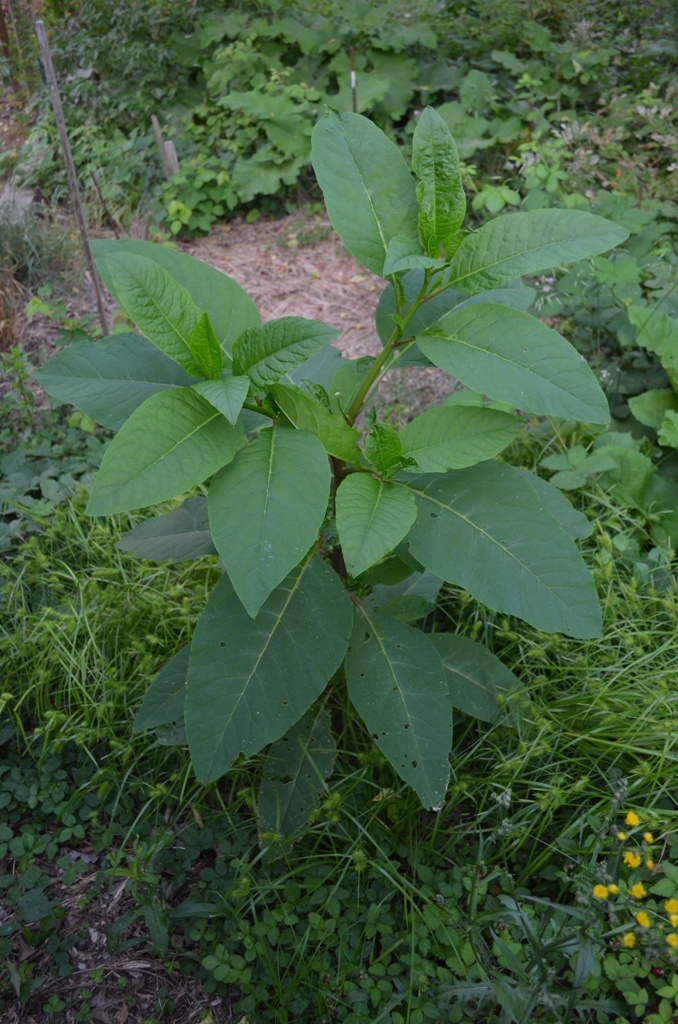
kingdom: Plantae
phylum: Tracheophyta
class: Magnoliopsida
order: Caryophyllales
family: Phytolaccaceae
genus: Phytolacca
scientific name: Phytolacca americana
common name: American pokeweed
